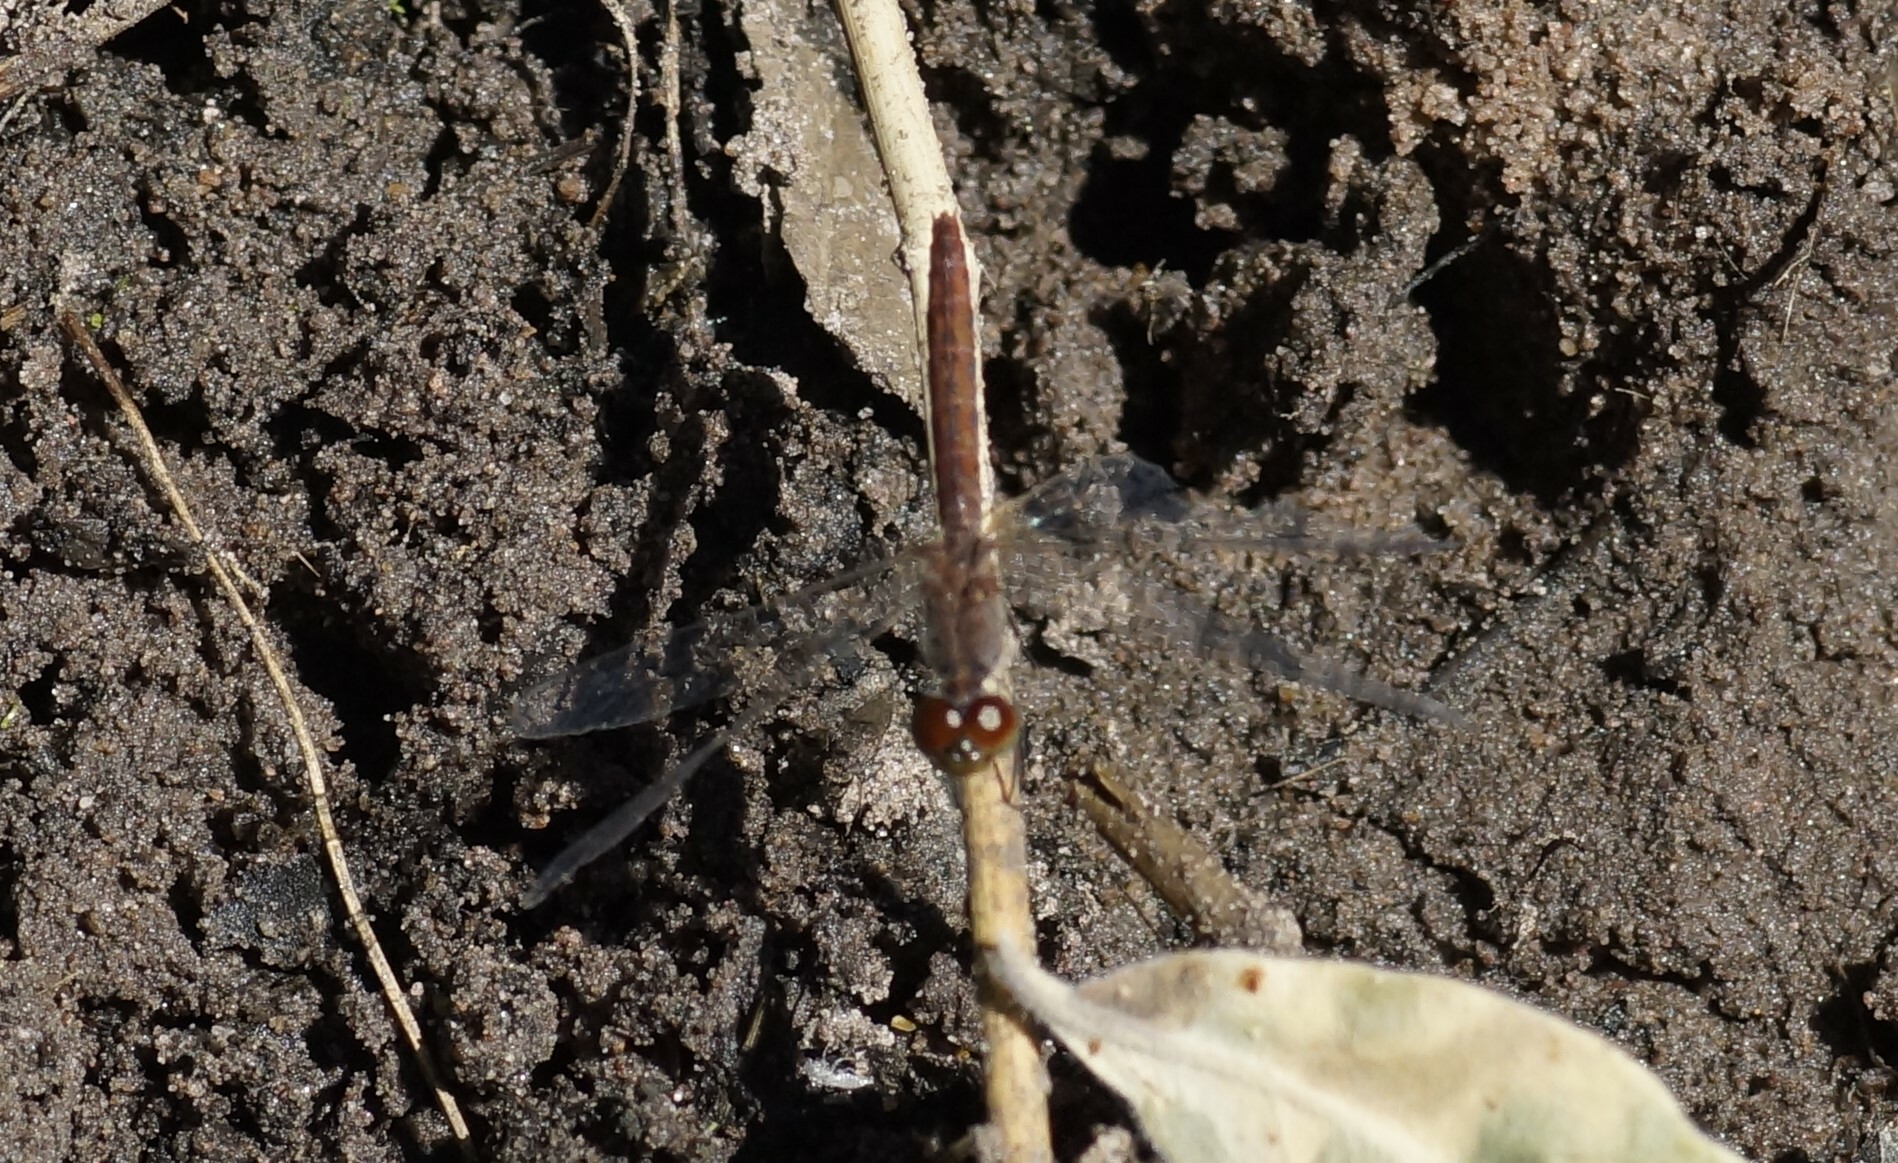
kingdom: Animalia
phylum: Arthropoda
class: Insecta
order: Odonata
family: Libellulidae
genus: Nannodiplax
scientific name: Nannodiplax rubra
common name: Pygmy percher
